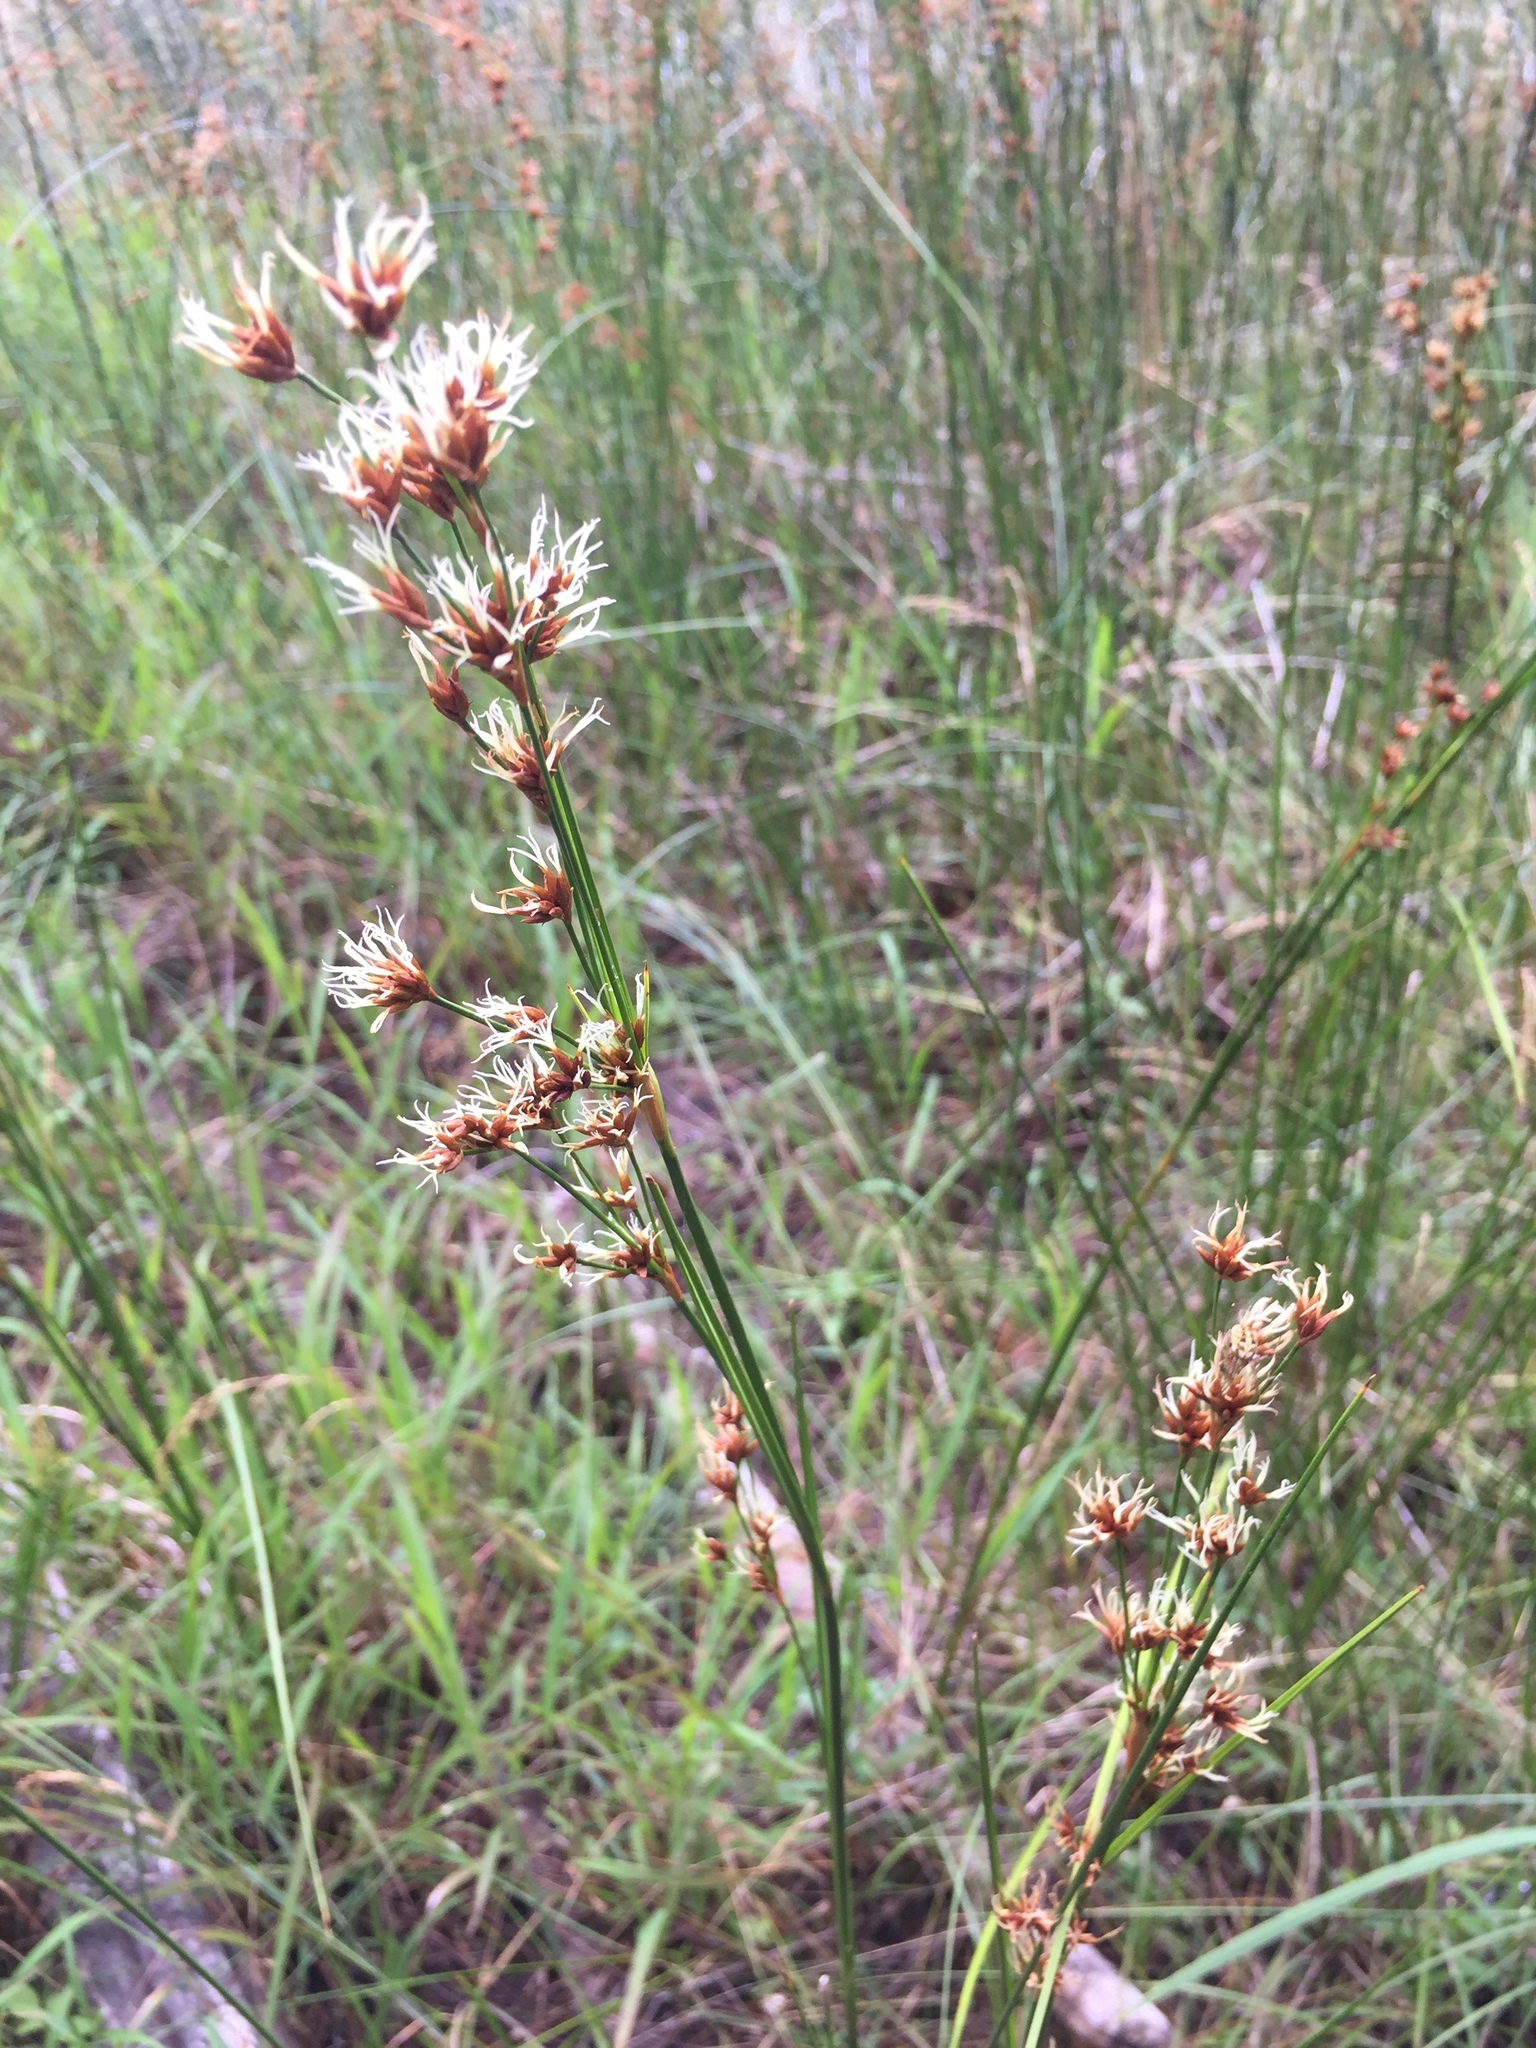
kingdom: Plantae
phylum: Tracheophyta
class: Liliopsida
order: Poales
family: Cyperaceae
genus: Cladium
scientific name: Cladium mariscoides
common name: Smooth sawgrass
